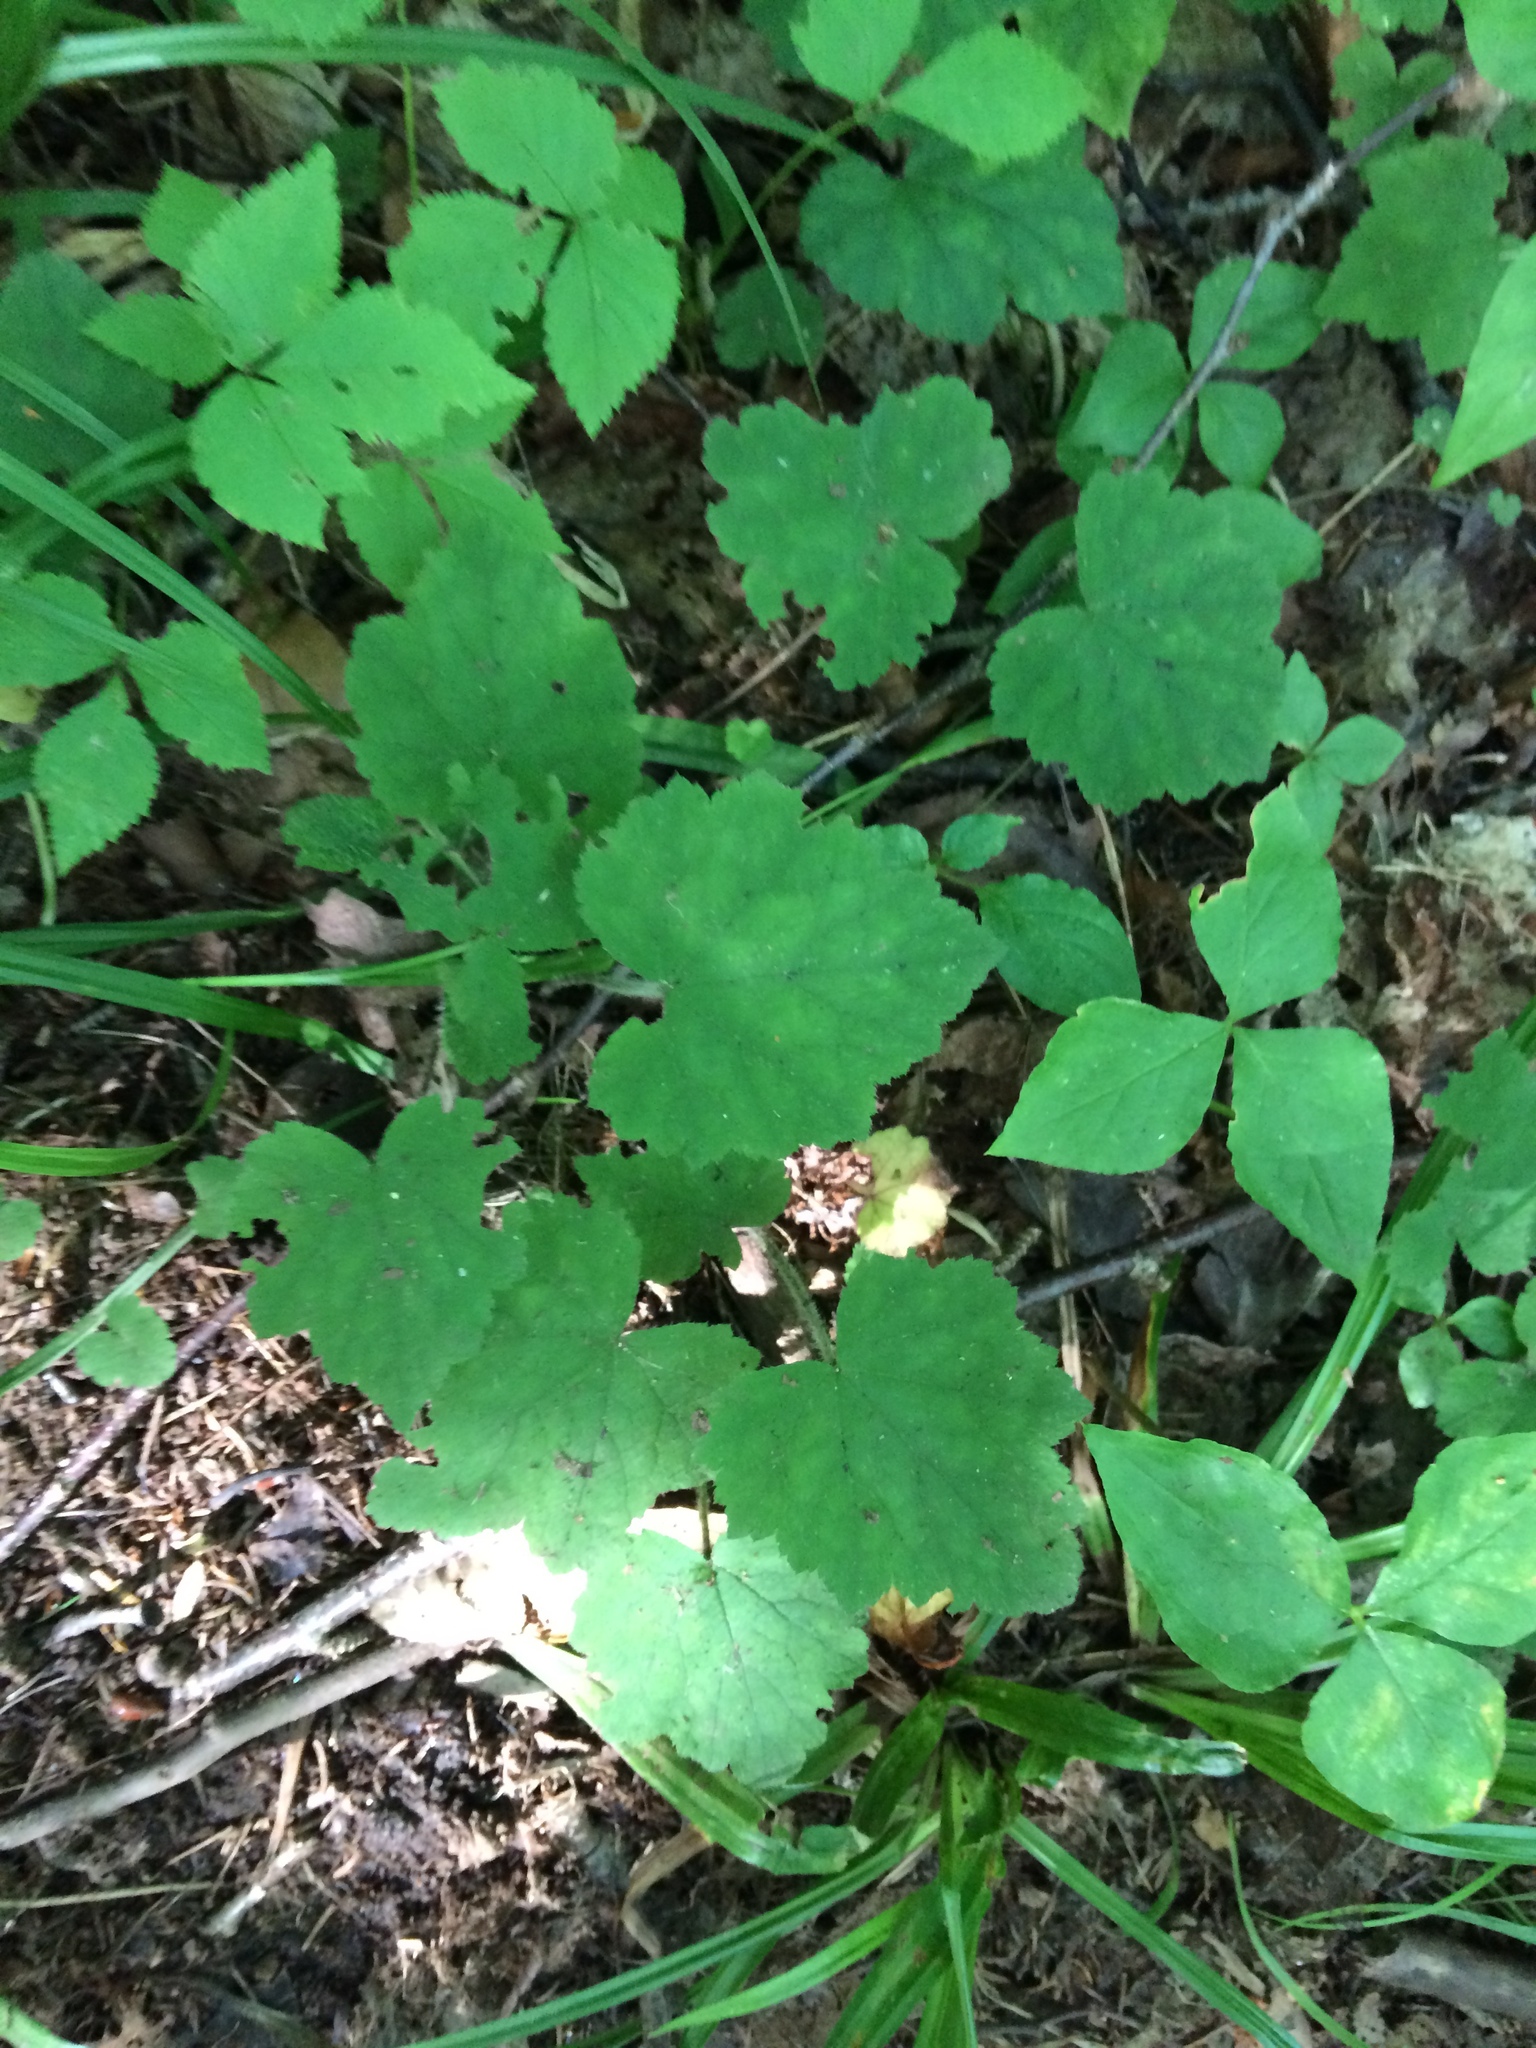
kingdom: Plantae
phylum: Tracheophyta
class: Magnoliopsida
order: Saxifragales
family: Saxifragaceae
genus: Tiarella
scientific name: Tiarella stolonifera
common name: Stoloniferous foamflower
